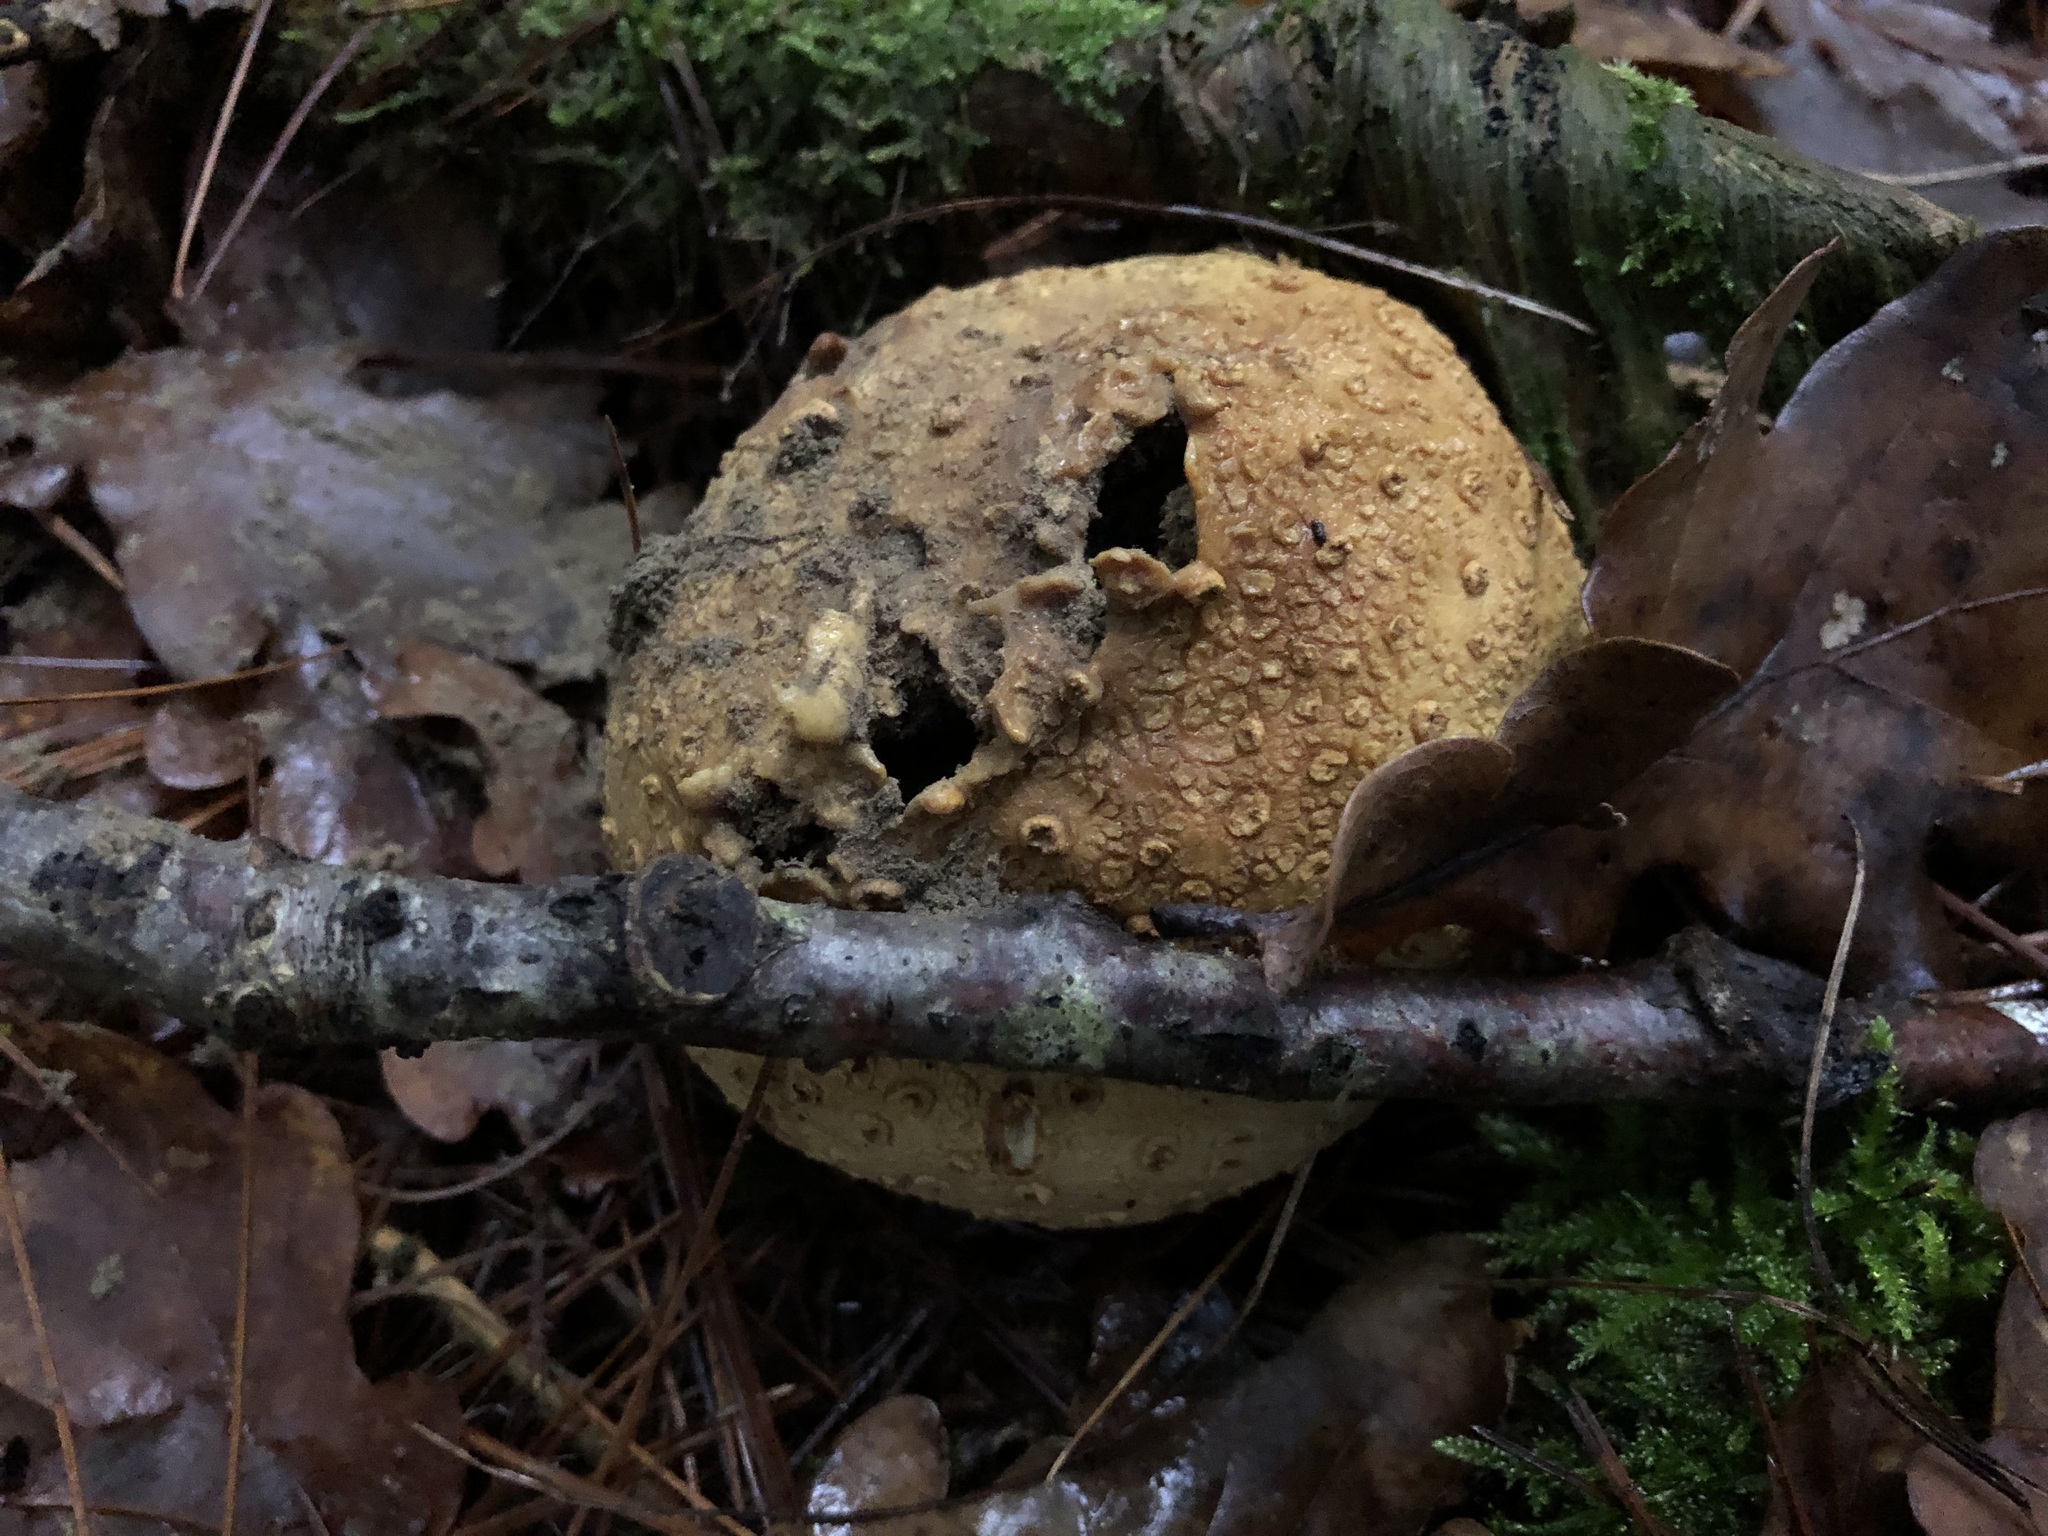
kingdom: Fungi
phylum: Basidiomycota
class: Agaricomycetes
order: Boletales
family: Sclerodermataceae
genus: Scleroderma
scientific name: Scleroderma citrinum
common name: Common earthball
